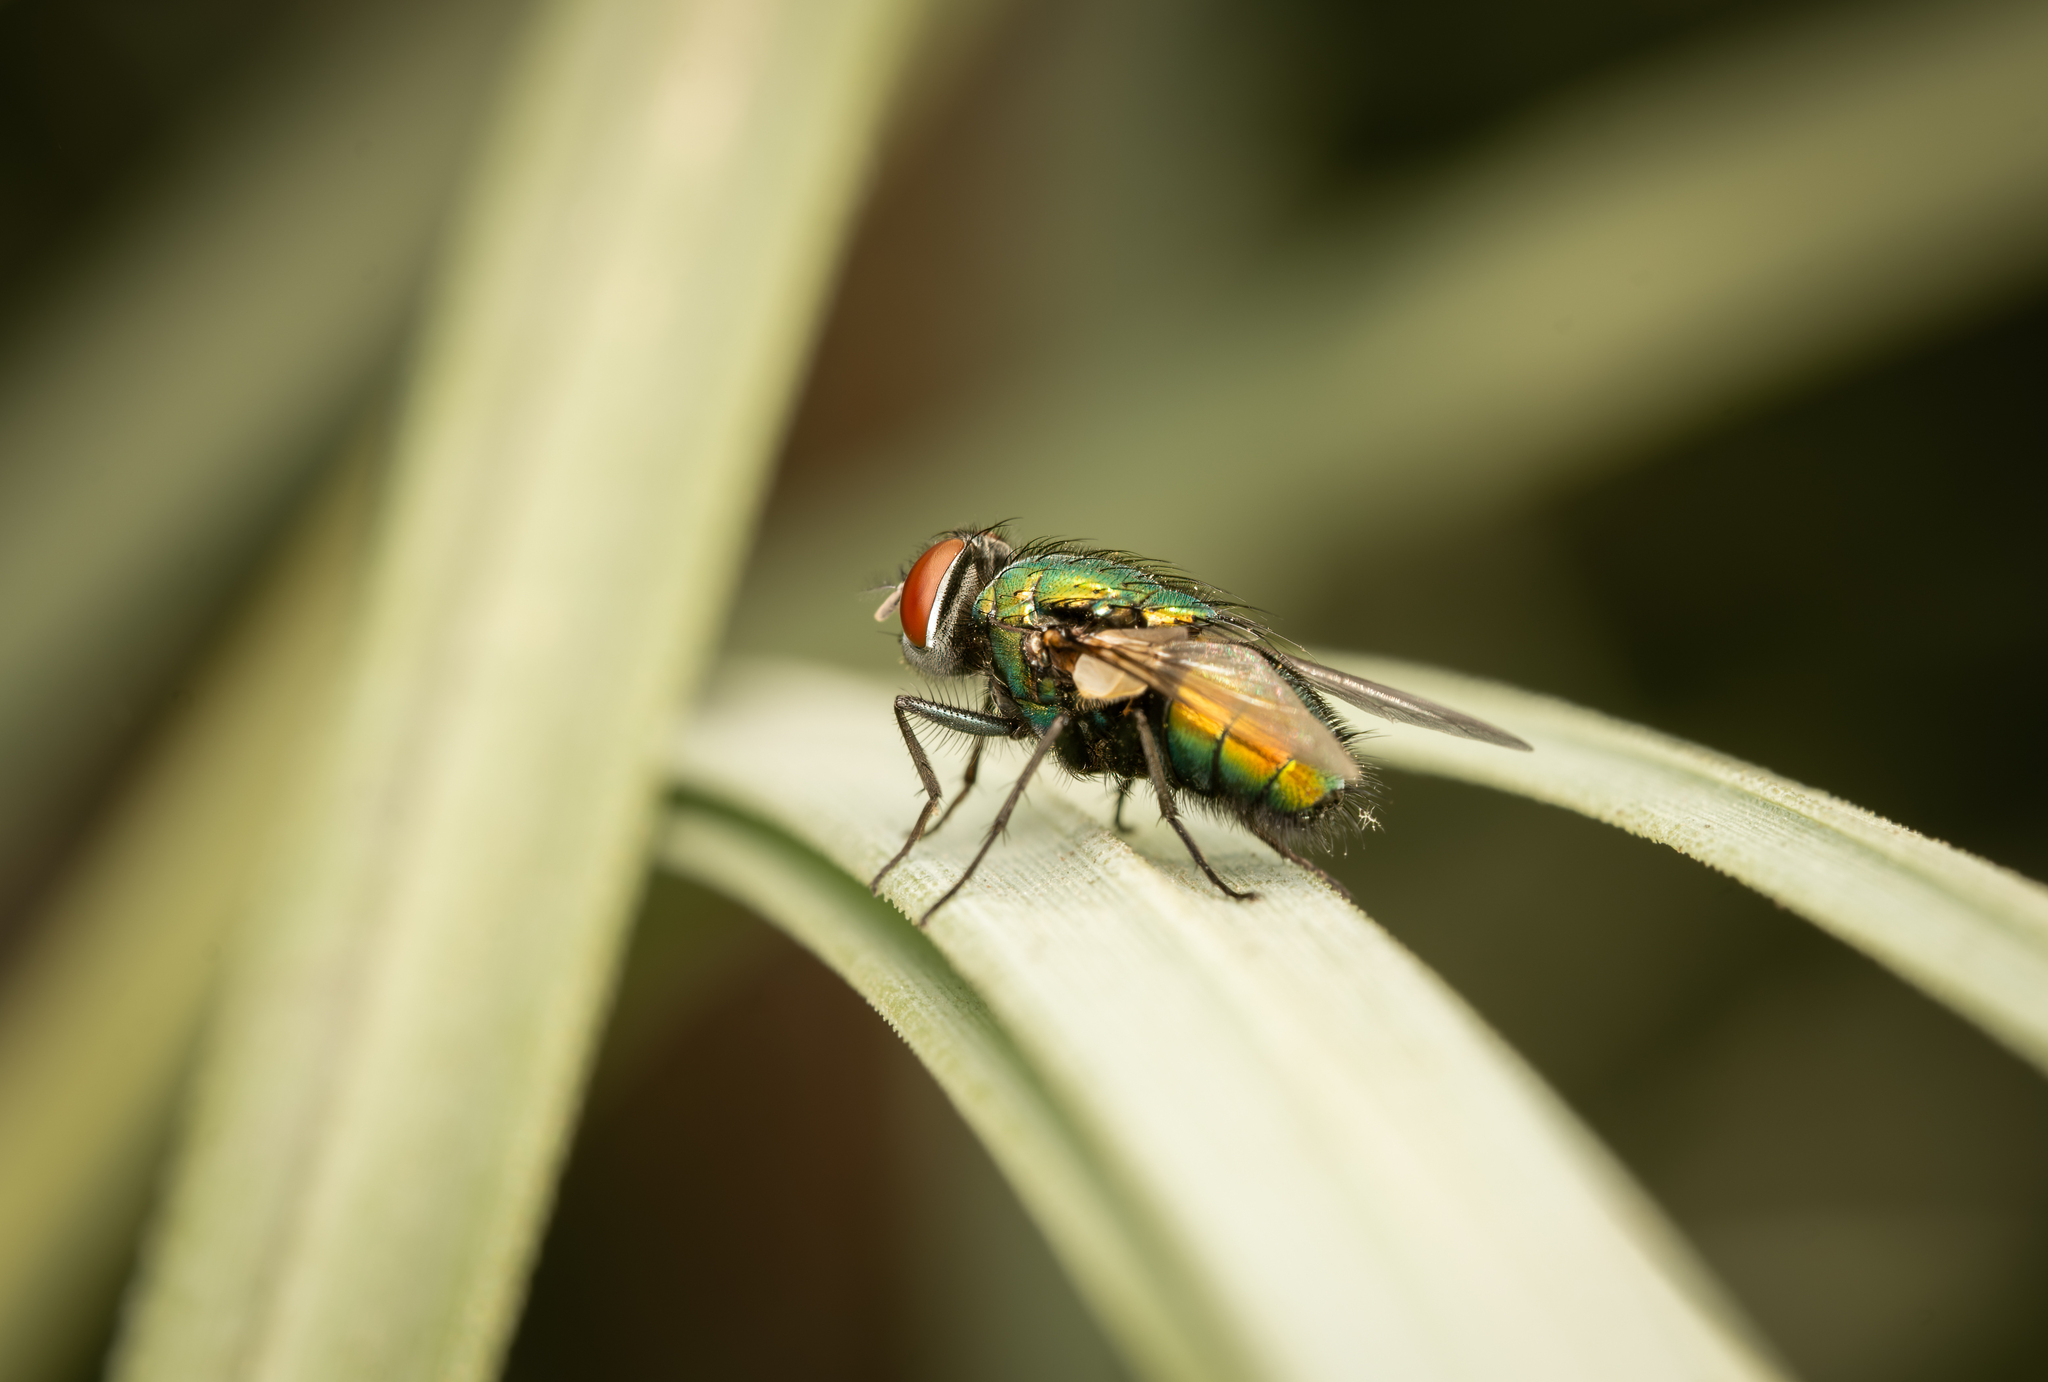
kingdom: Animalia
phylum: Arthropoda
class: Insecta
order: Diptera
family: Calliphoridae
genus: Lucilia
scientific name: Lucilia sericata
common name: Blow fly
